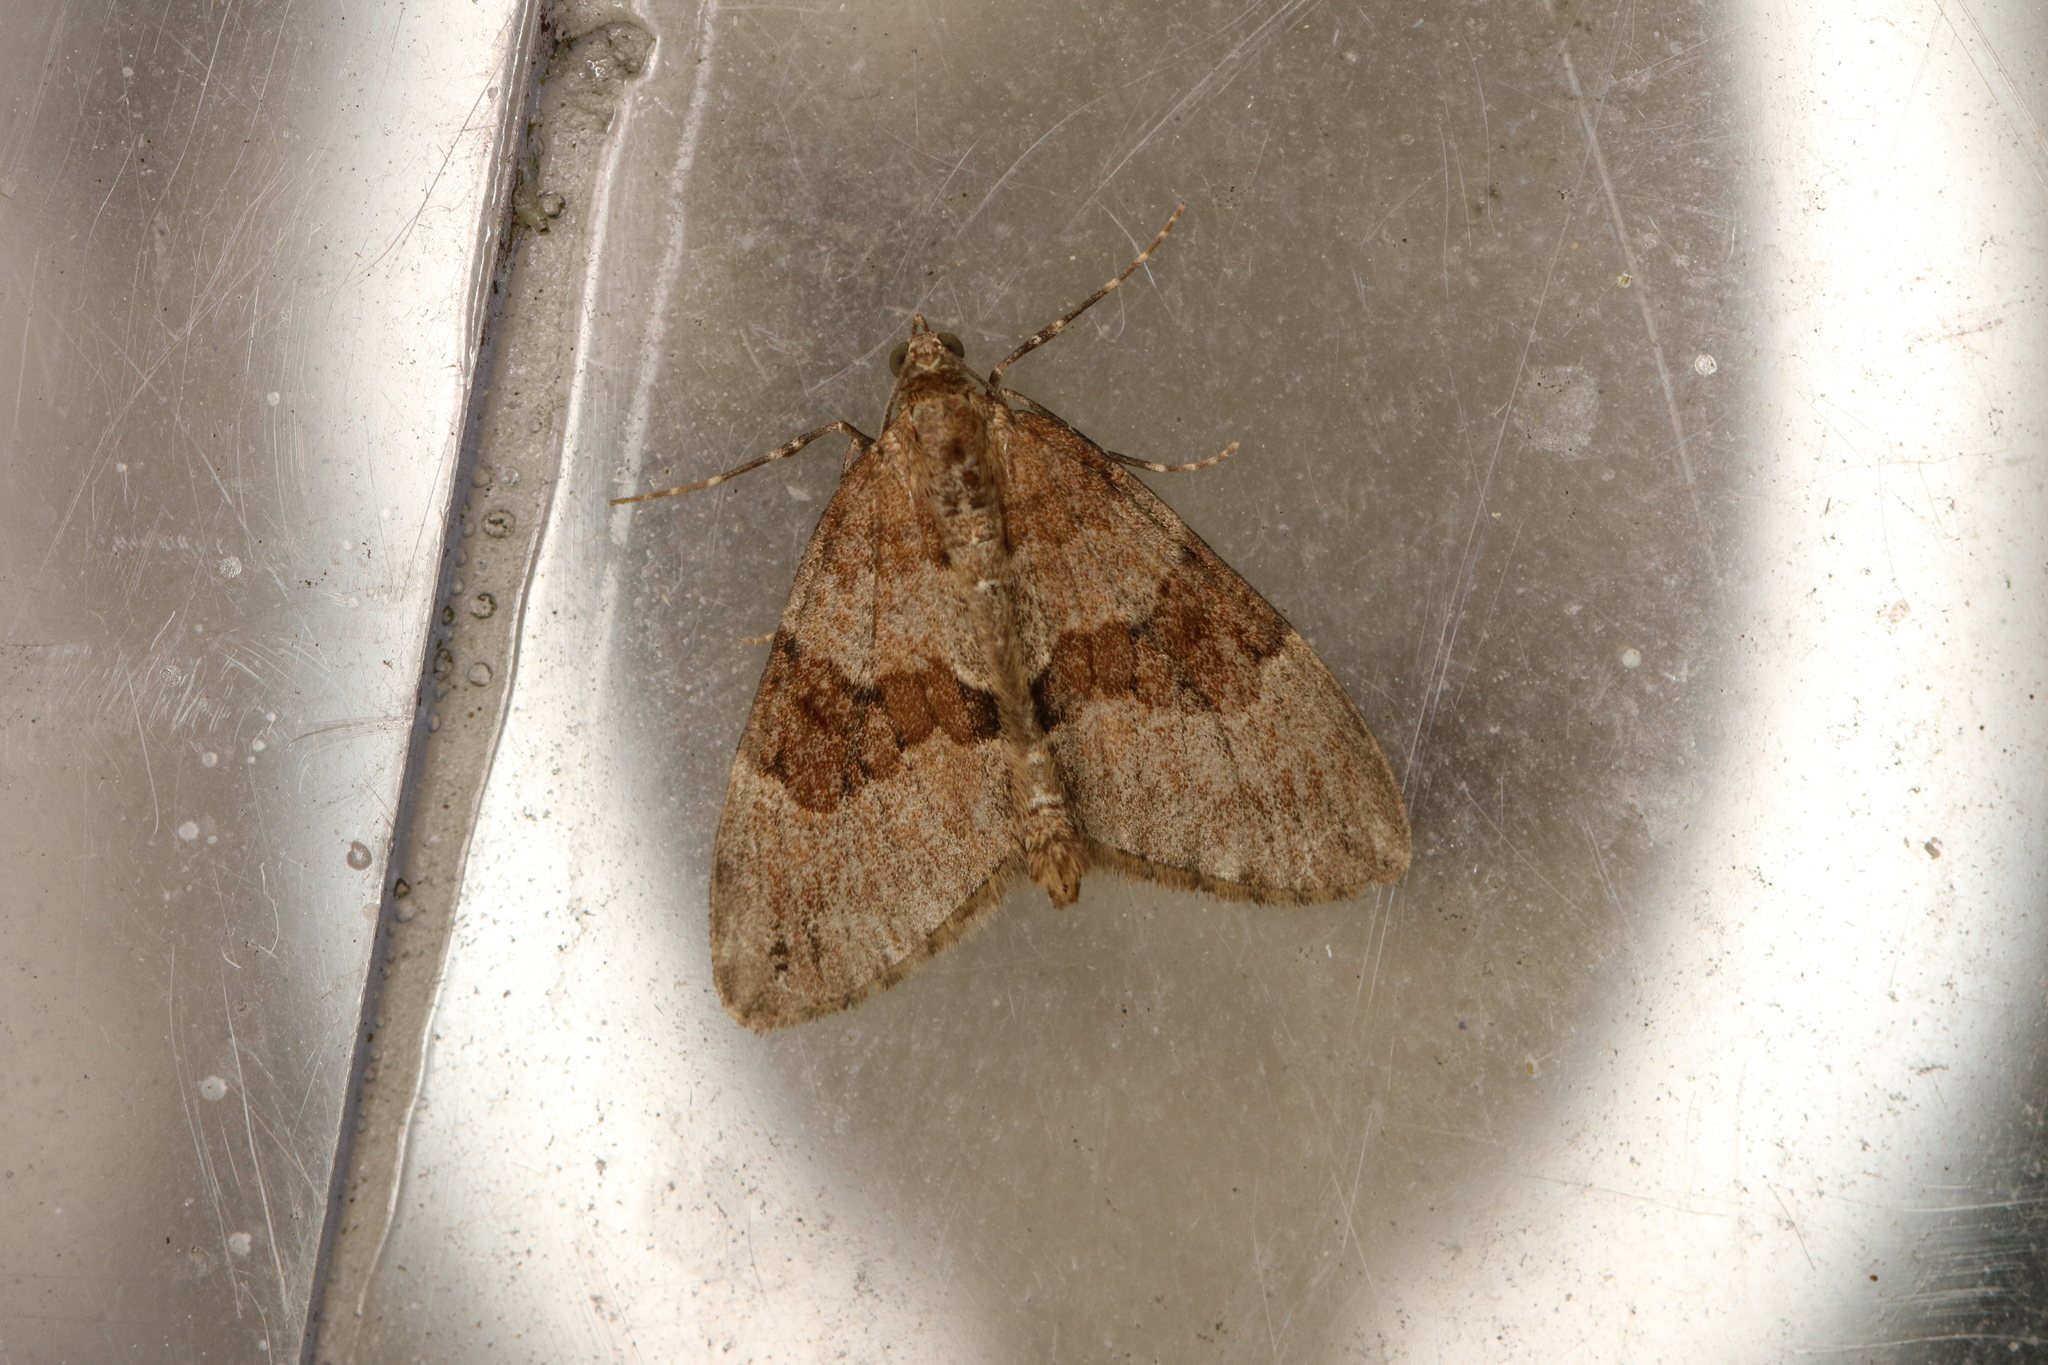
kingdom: Animalia
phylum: Arthropoda
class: Insecta
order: Lepidoptera
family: Geometridae
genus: Thera
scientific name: Thera obeliscata
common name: Grey pine carpet
